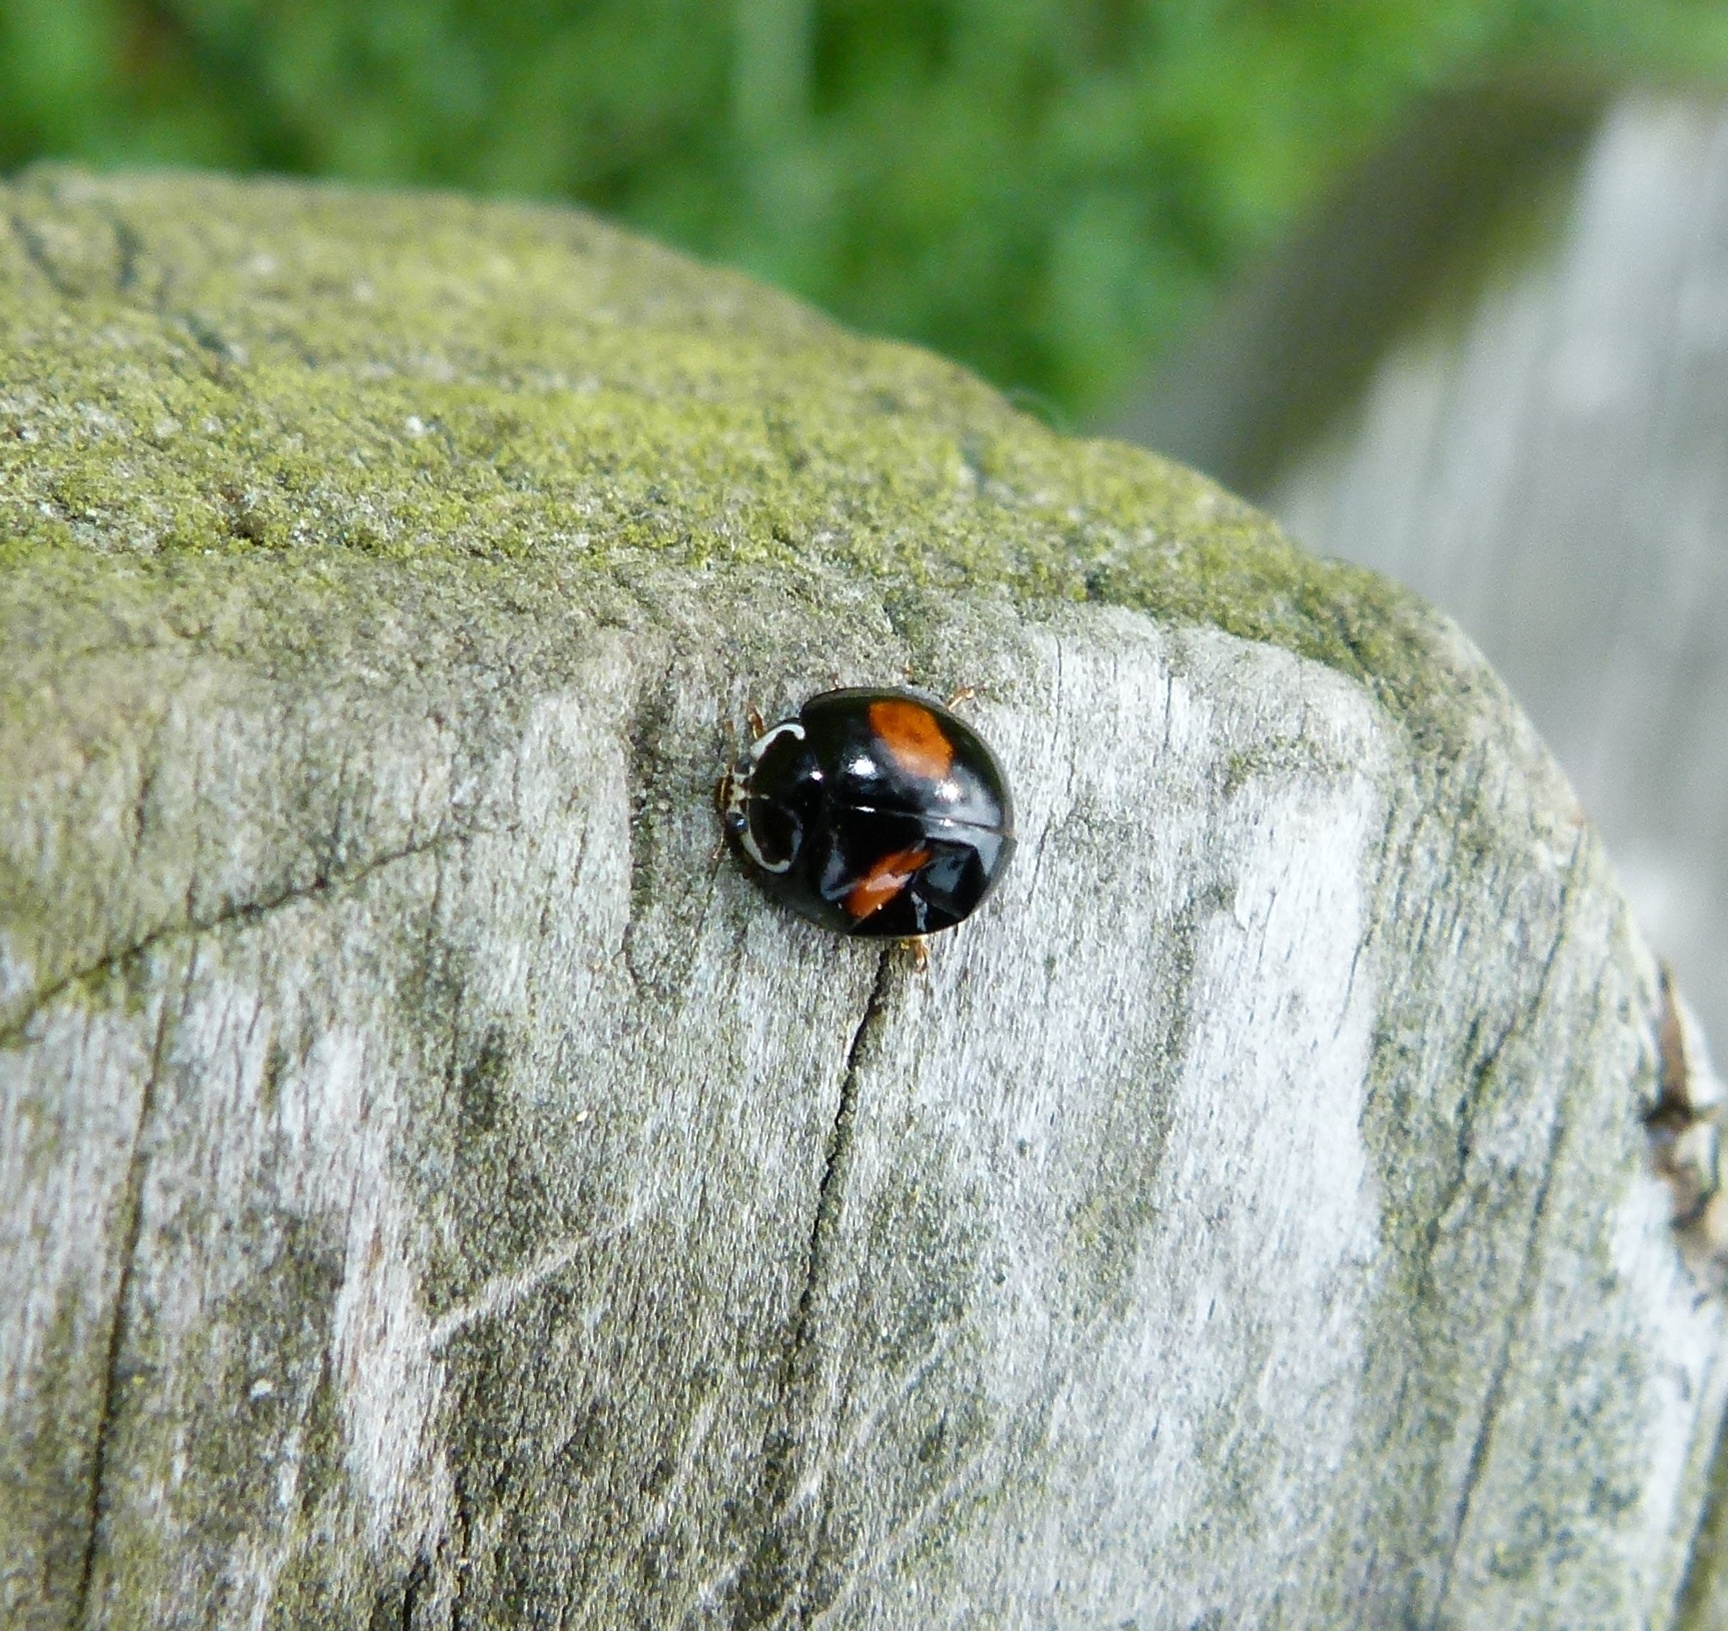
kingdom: Animalia
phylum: Arthropoda
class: Insecta
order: Coleoptera
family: Coccinellidae
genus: Olla
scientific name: Olla v-nigrum
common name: Ashy gray lady beetle
